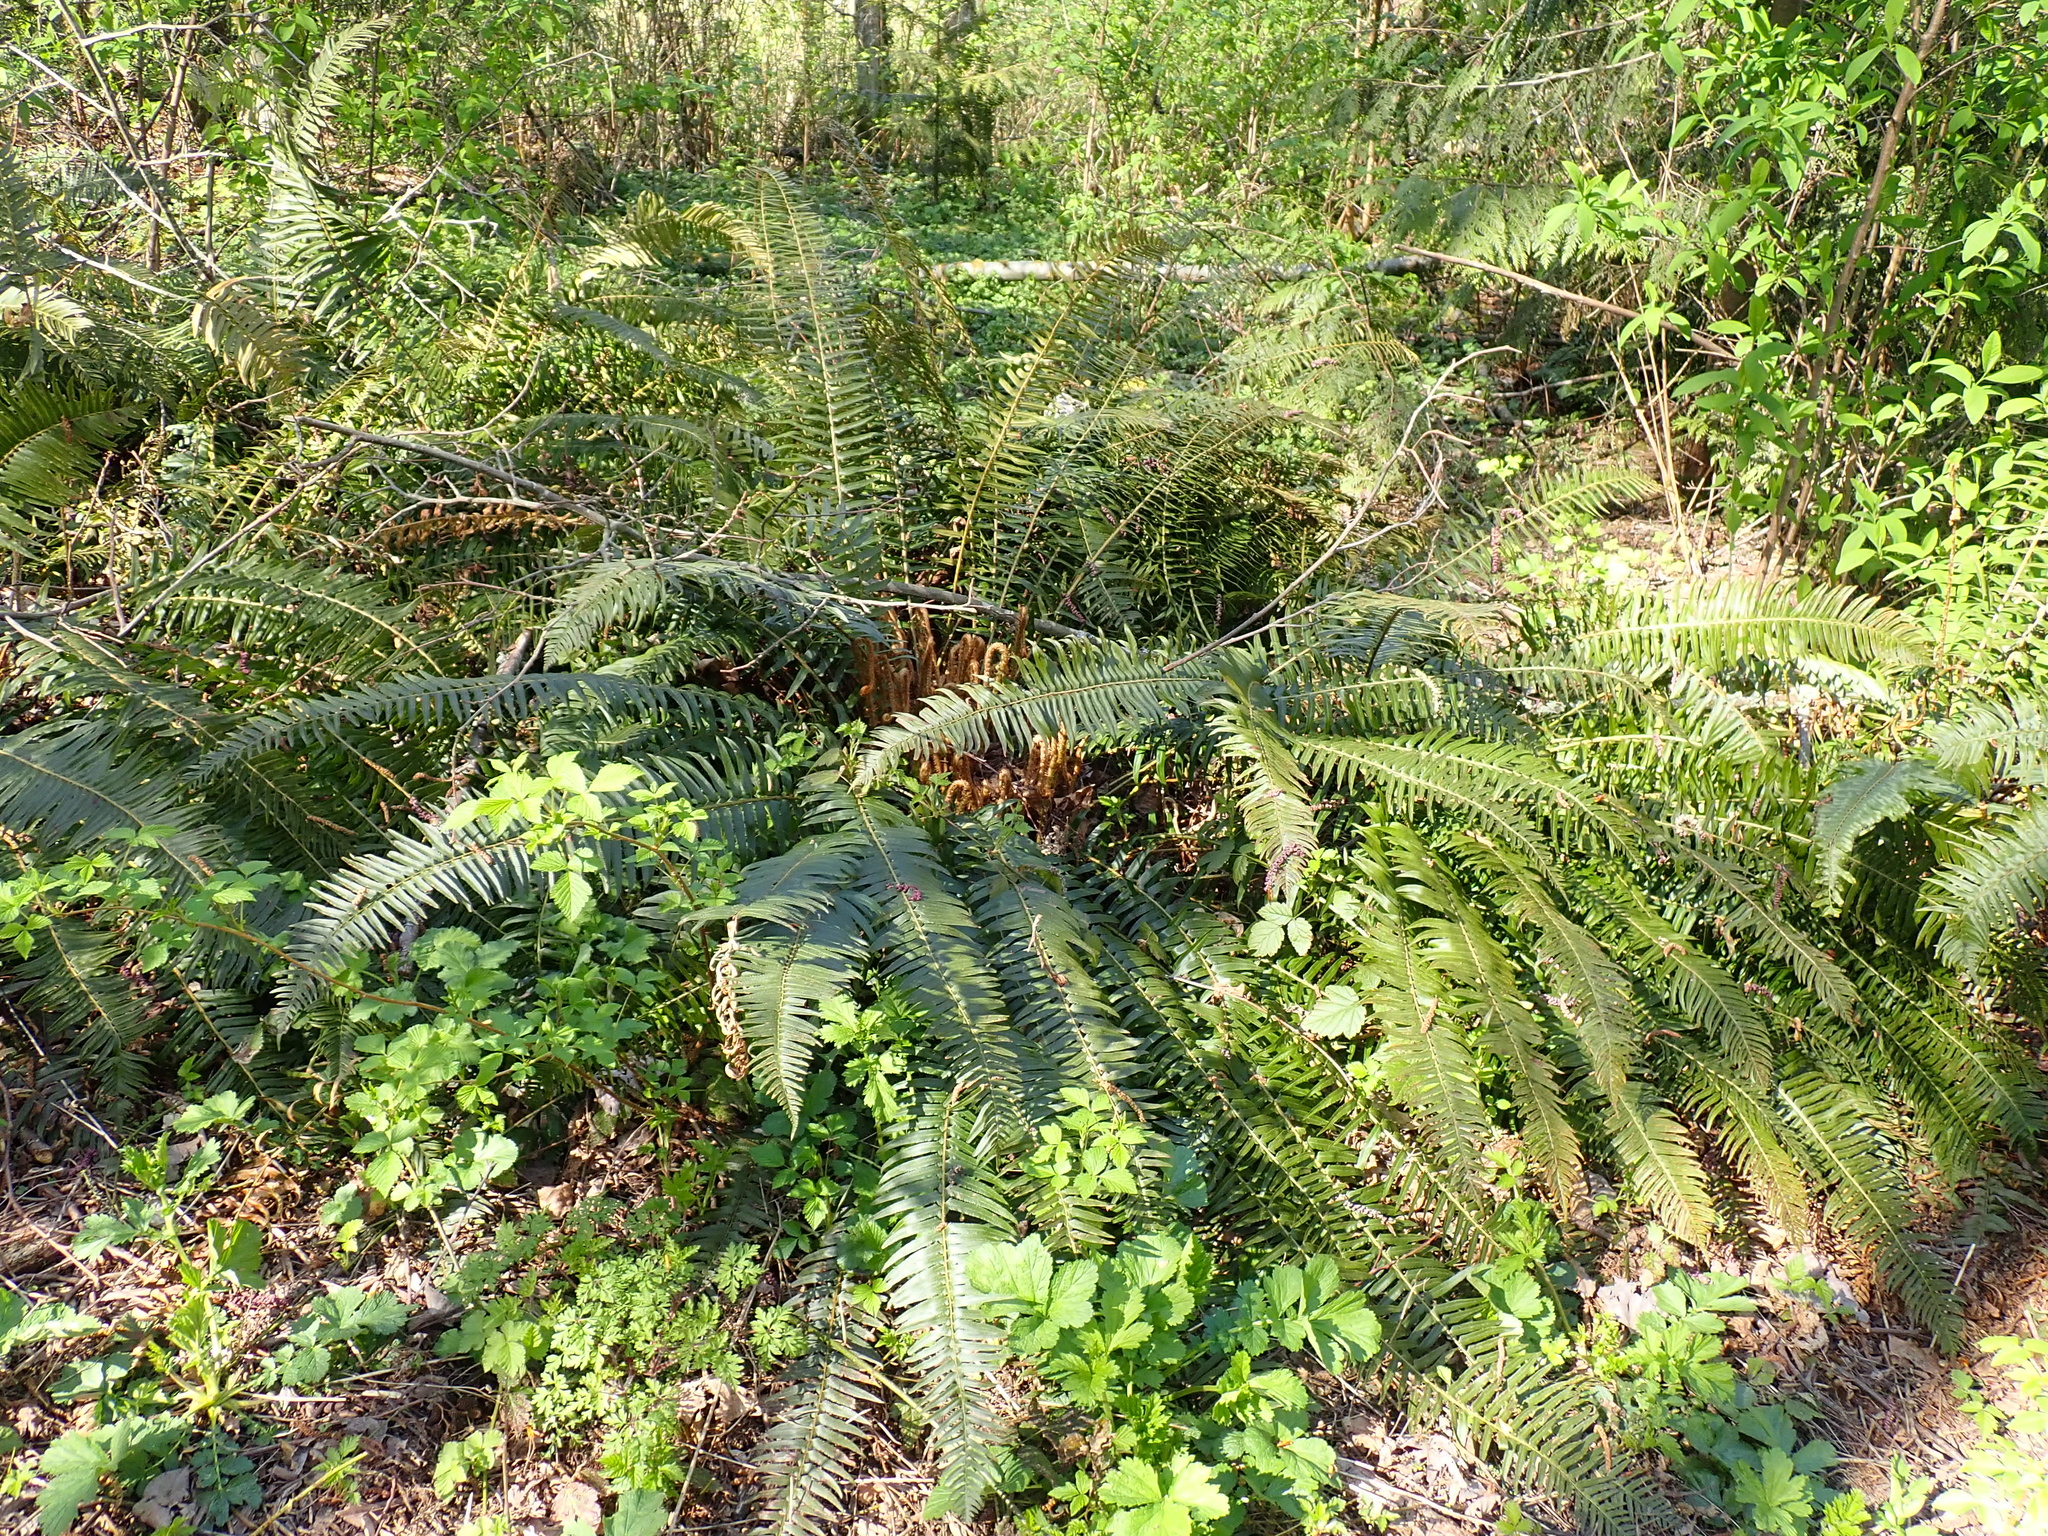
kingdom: Plantae
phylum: Tracheophyta
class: Polypodiopsida
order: Polypodiales
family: Dryopteridaceae
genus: Polystichum
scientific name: Polystichum munitum
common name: Western sword-fern
